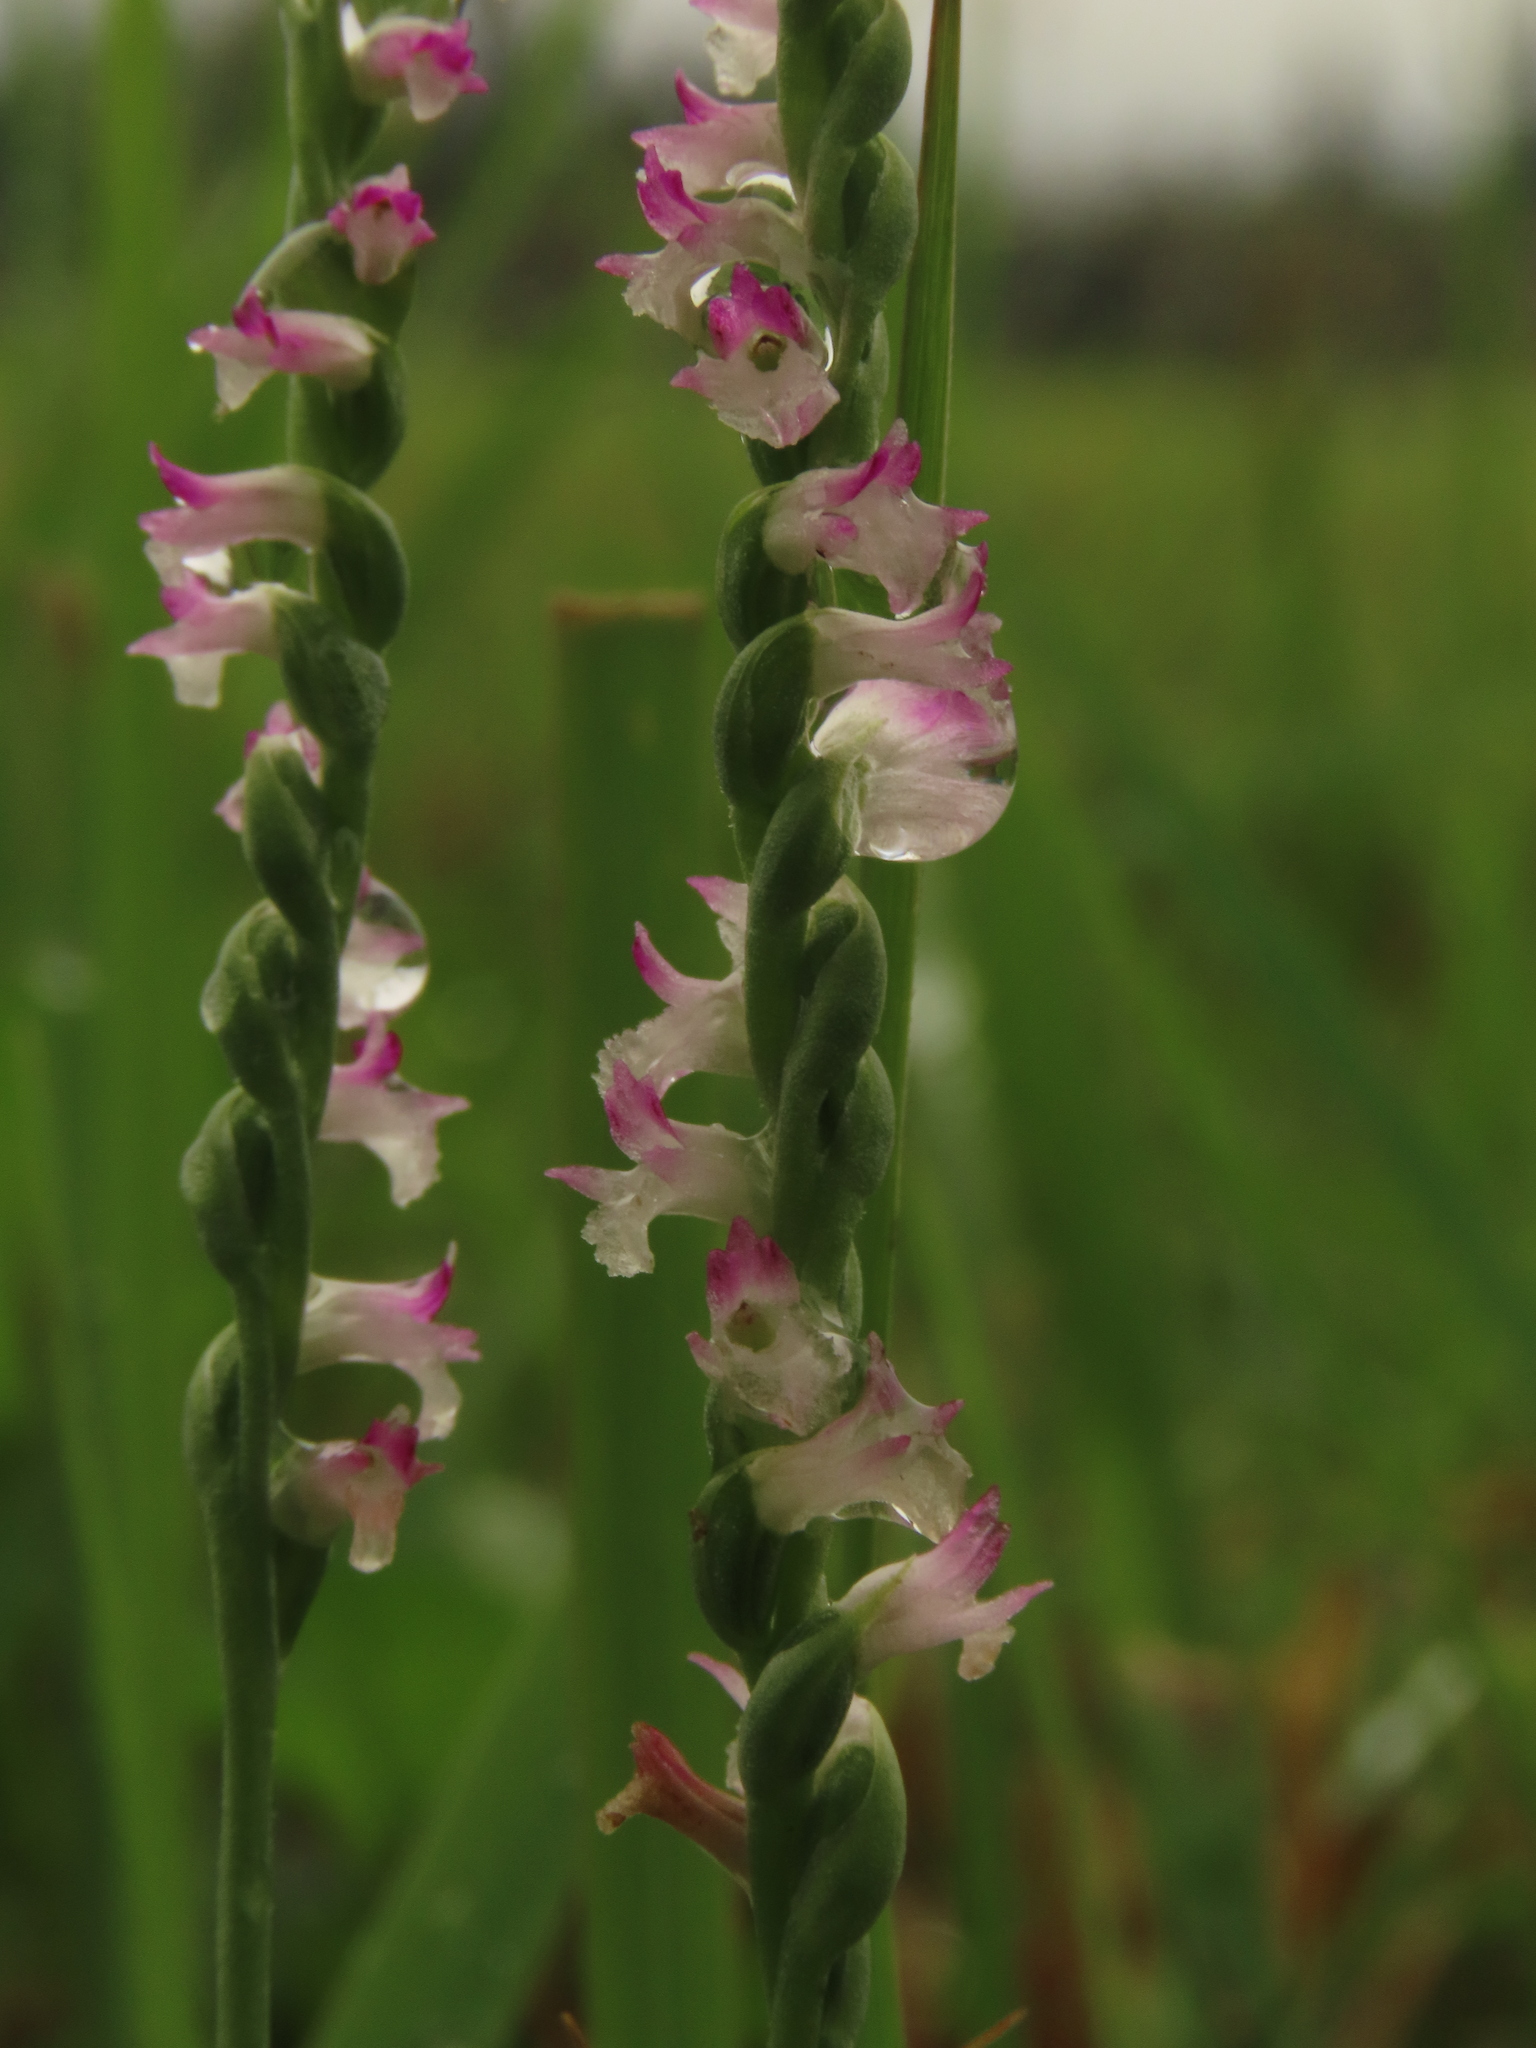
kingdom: Plantae
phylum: Tracheophyta
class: Liliopsida
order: Asparagales
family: Orchidaceae
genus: Spiranthes
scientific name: Spiranthes sinensis
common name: Chinese spiranthes
